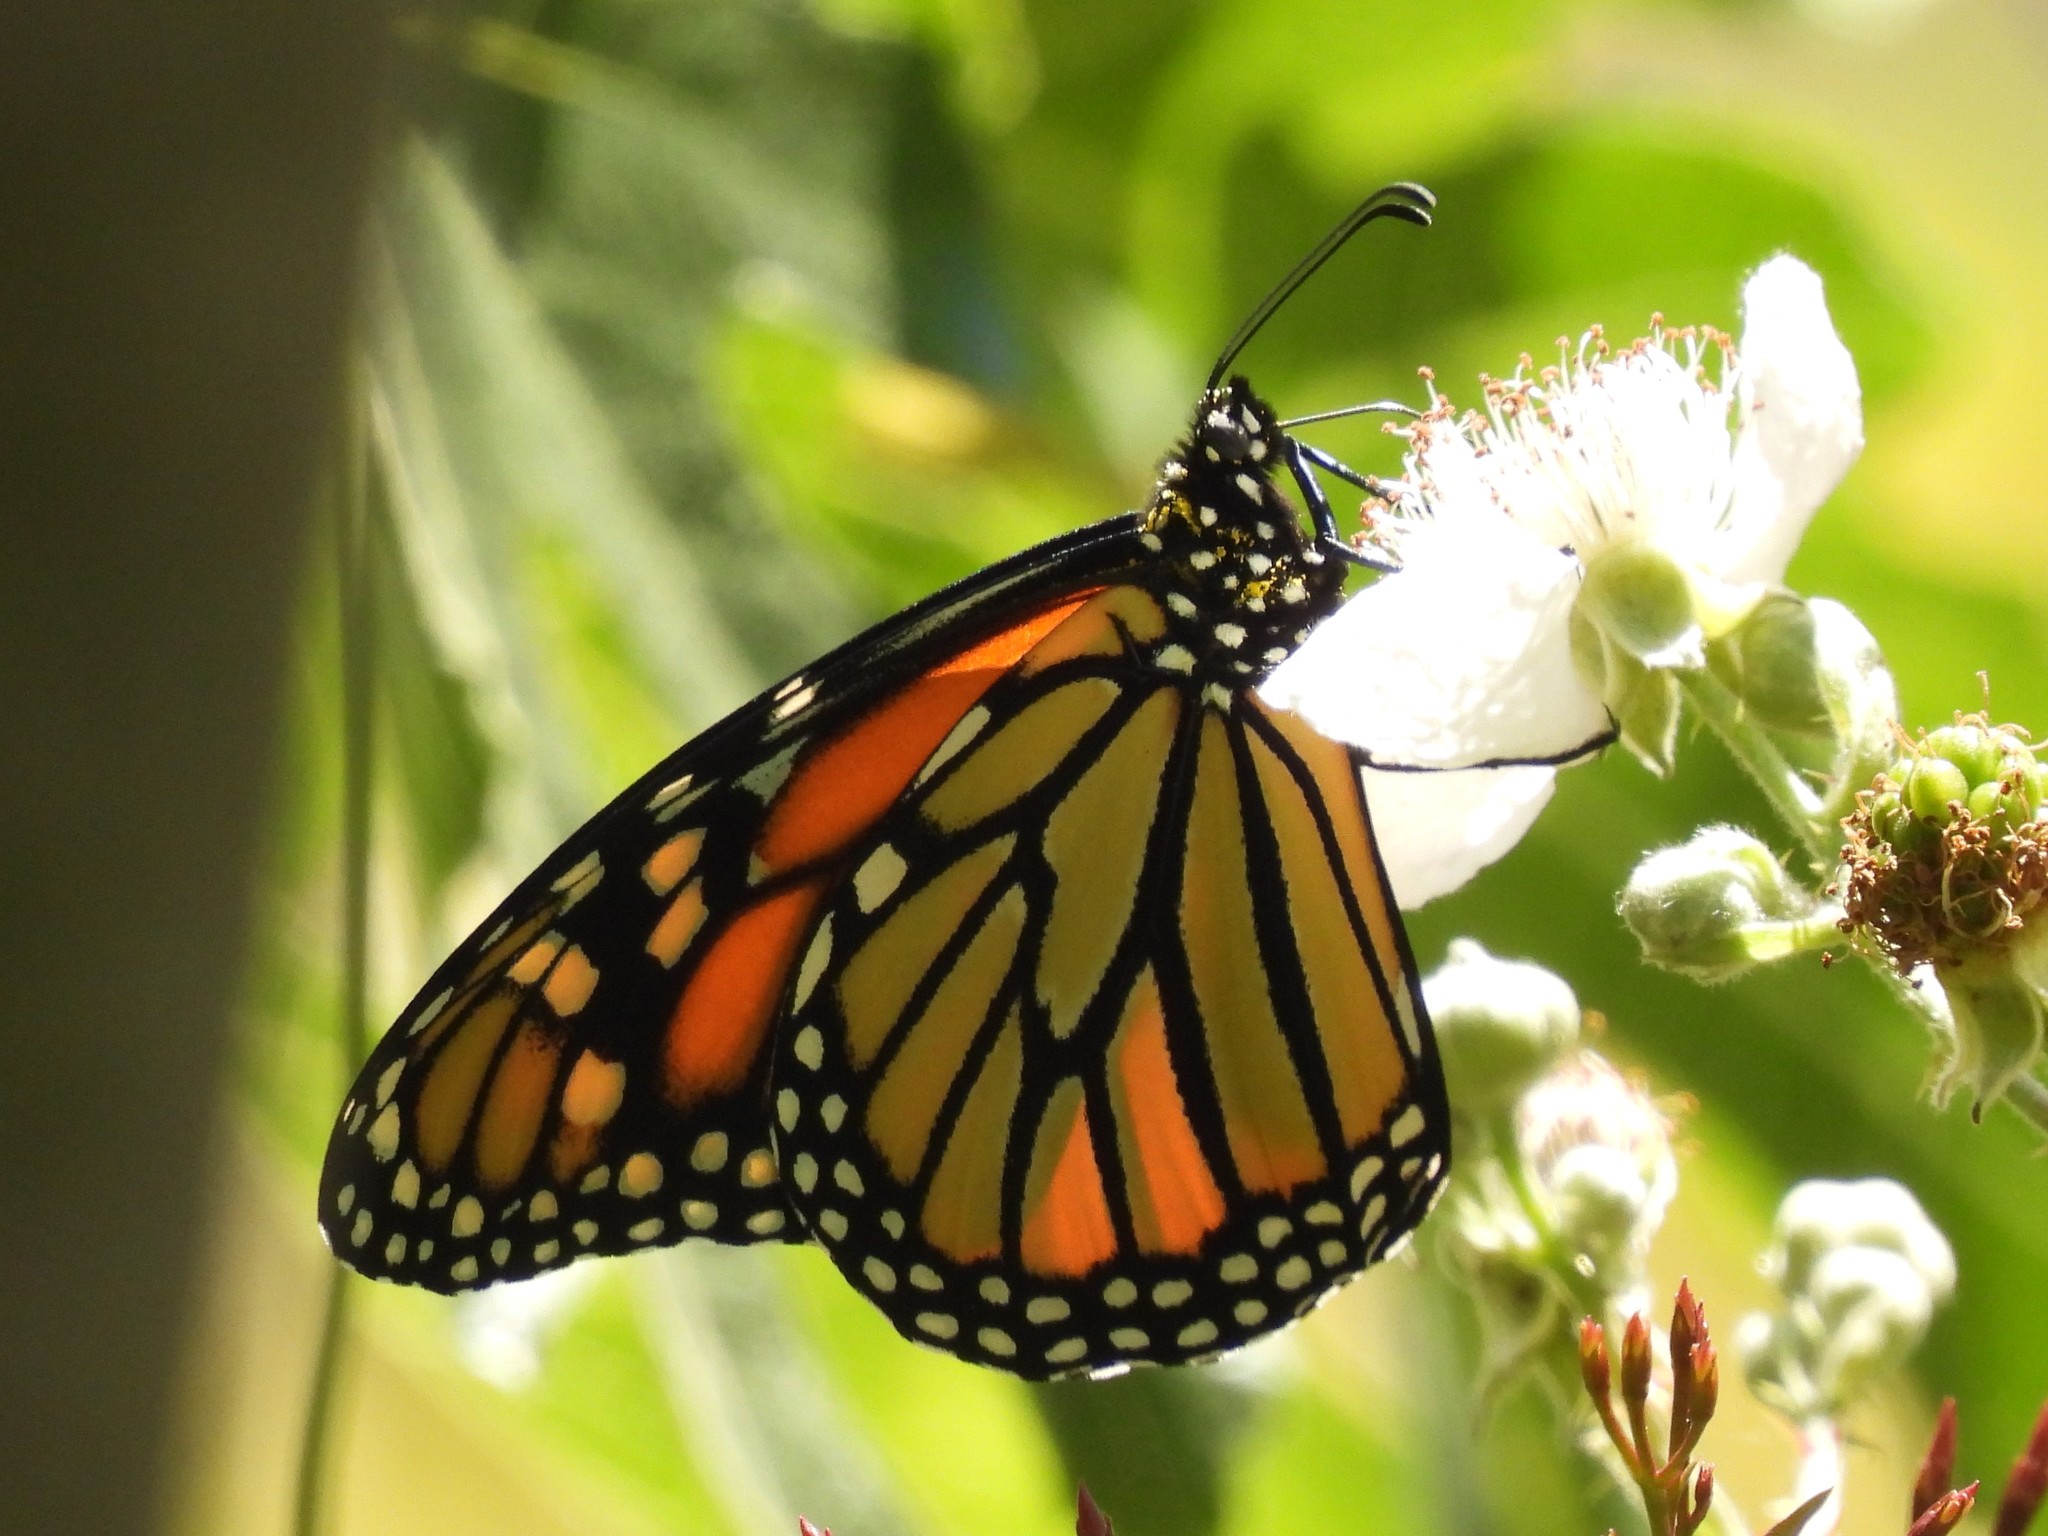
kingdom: Animalia
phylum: Arthropoda
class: Insecta
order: Lepidoptera
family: Nymphalidae
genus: Danaus
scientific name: Danaus plexippus
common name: Monarch
